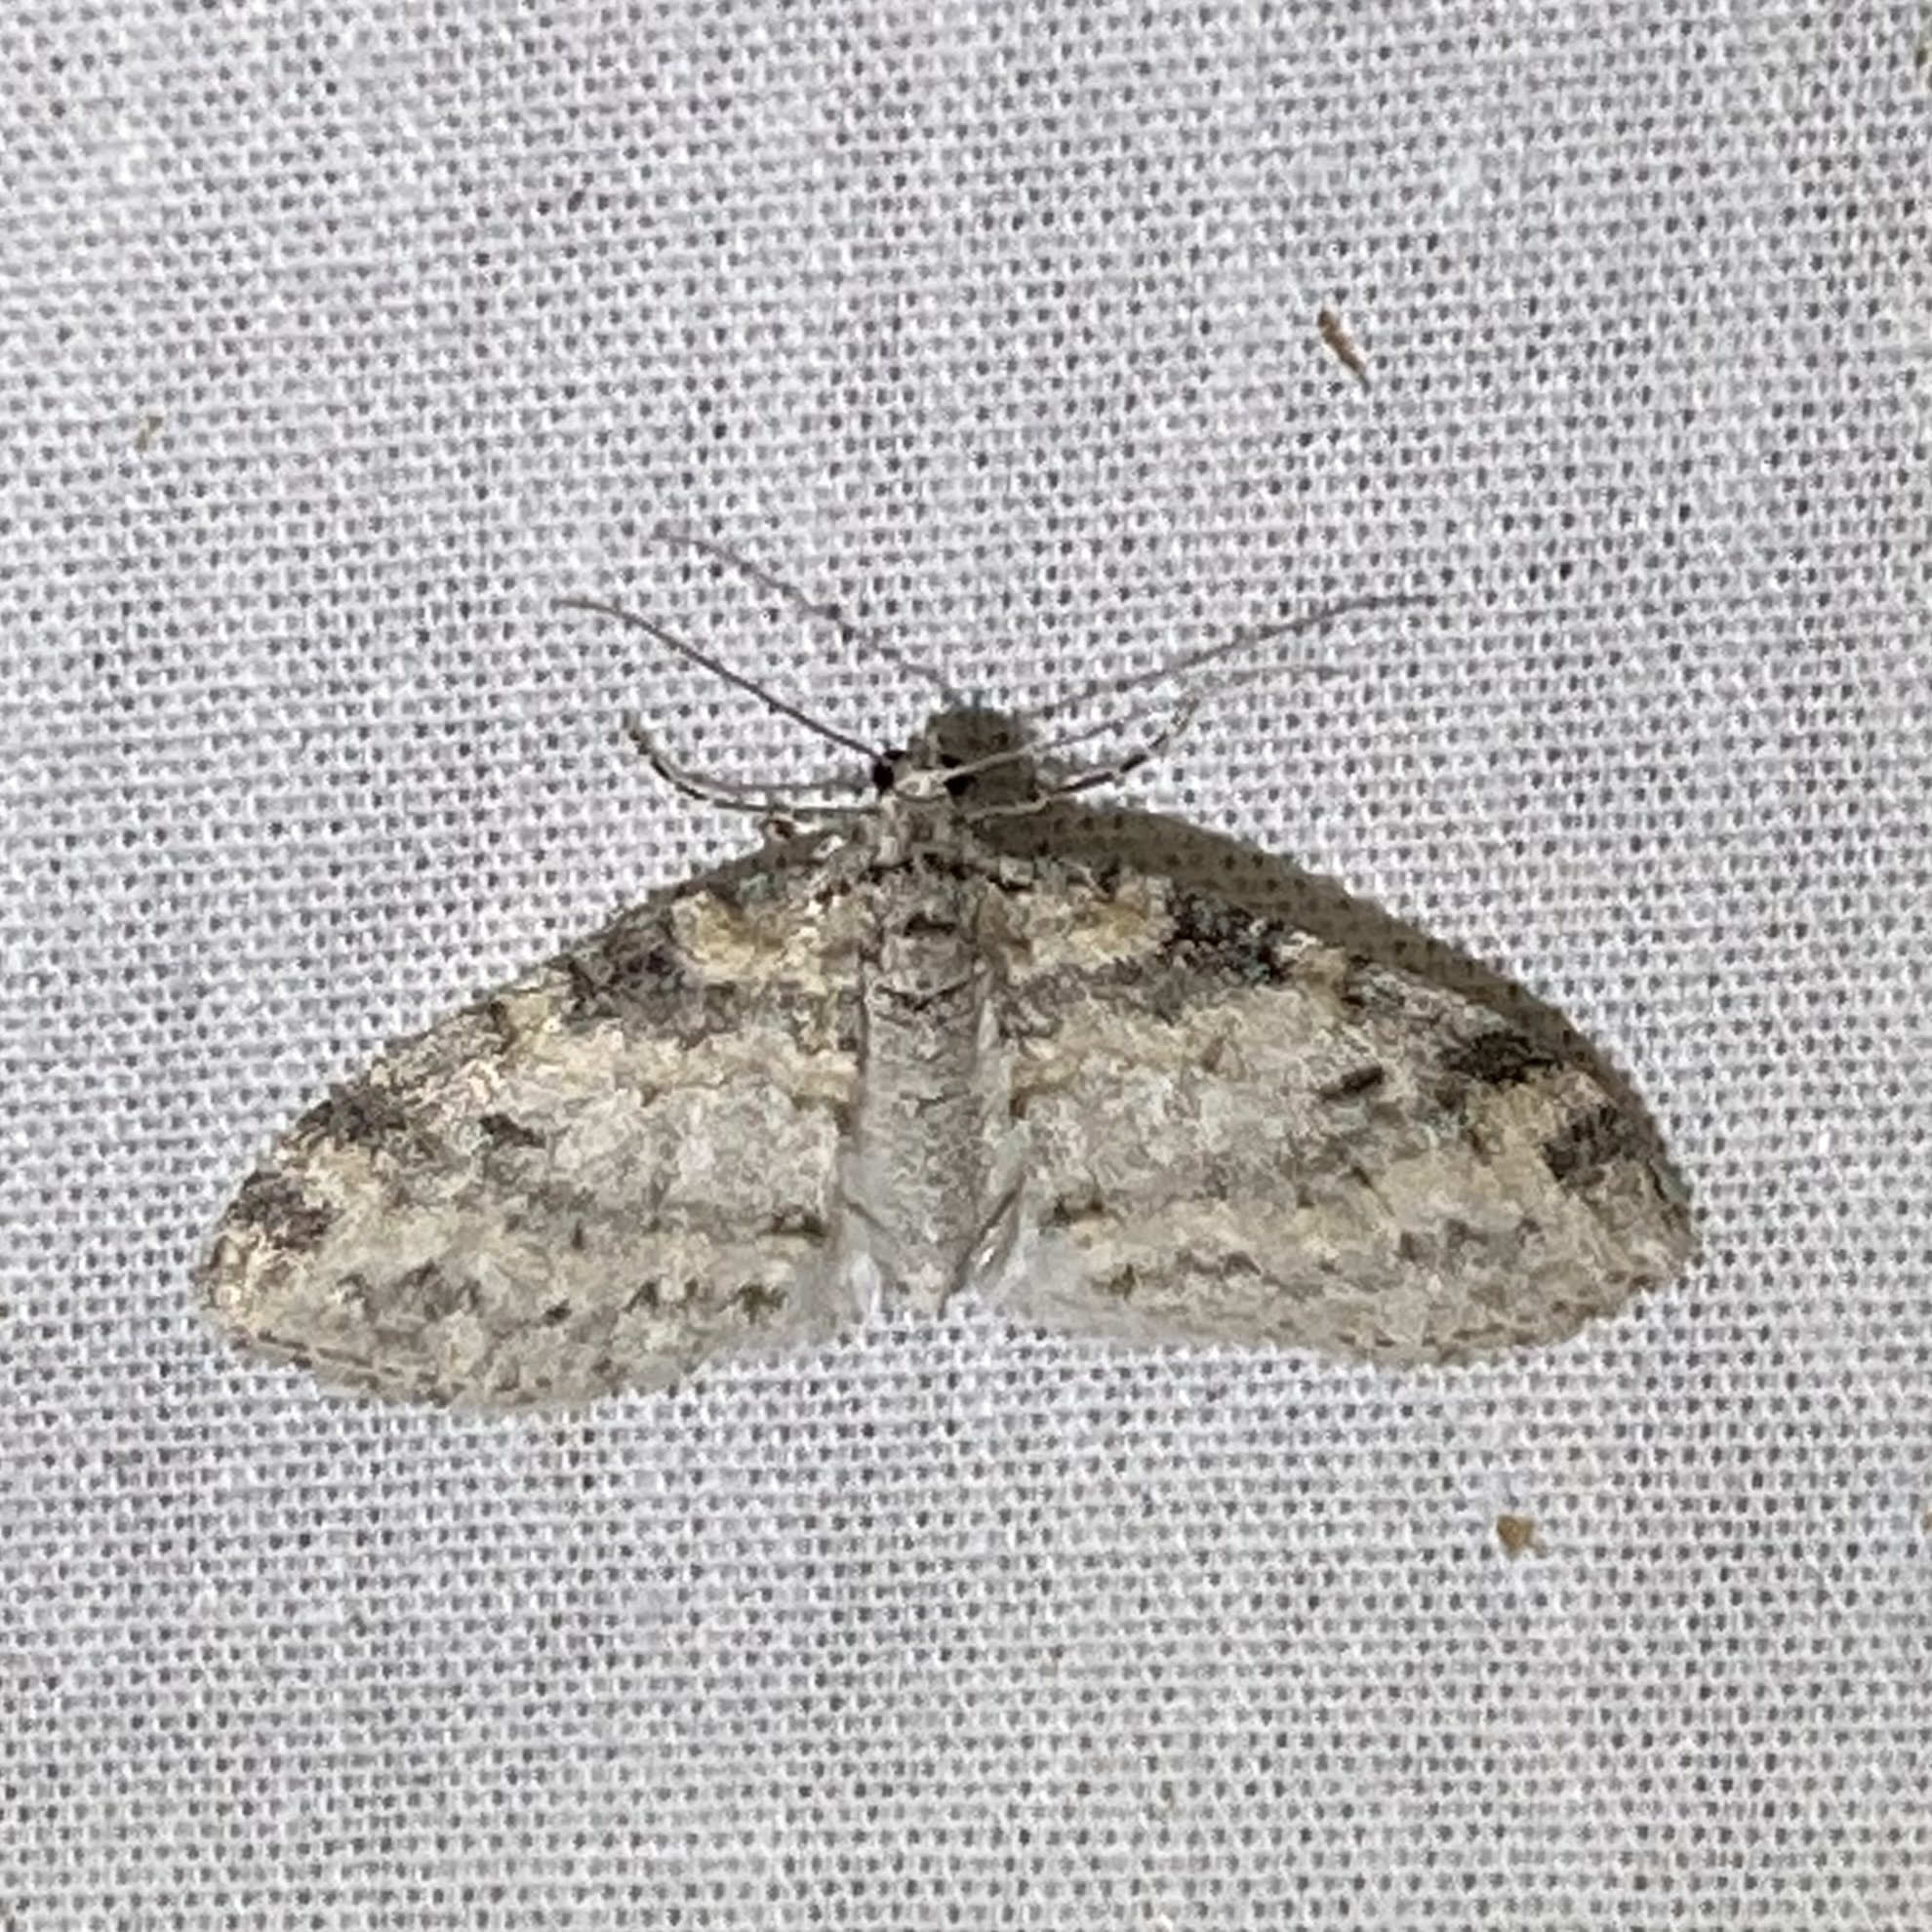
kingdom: Animalia
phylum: Arthropoda
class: Insecta
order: Lepidoptera
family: Geometridae
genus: Lobophora
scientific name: Lobophora nivigerata
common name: Powdered bigwing
